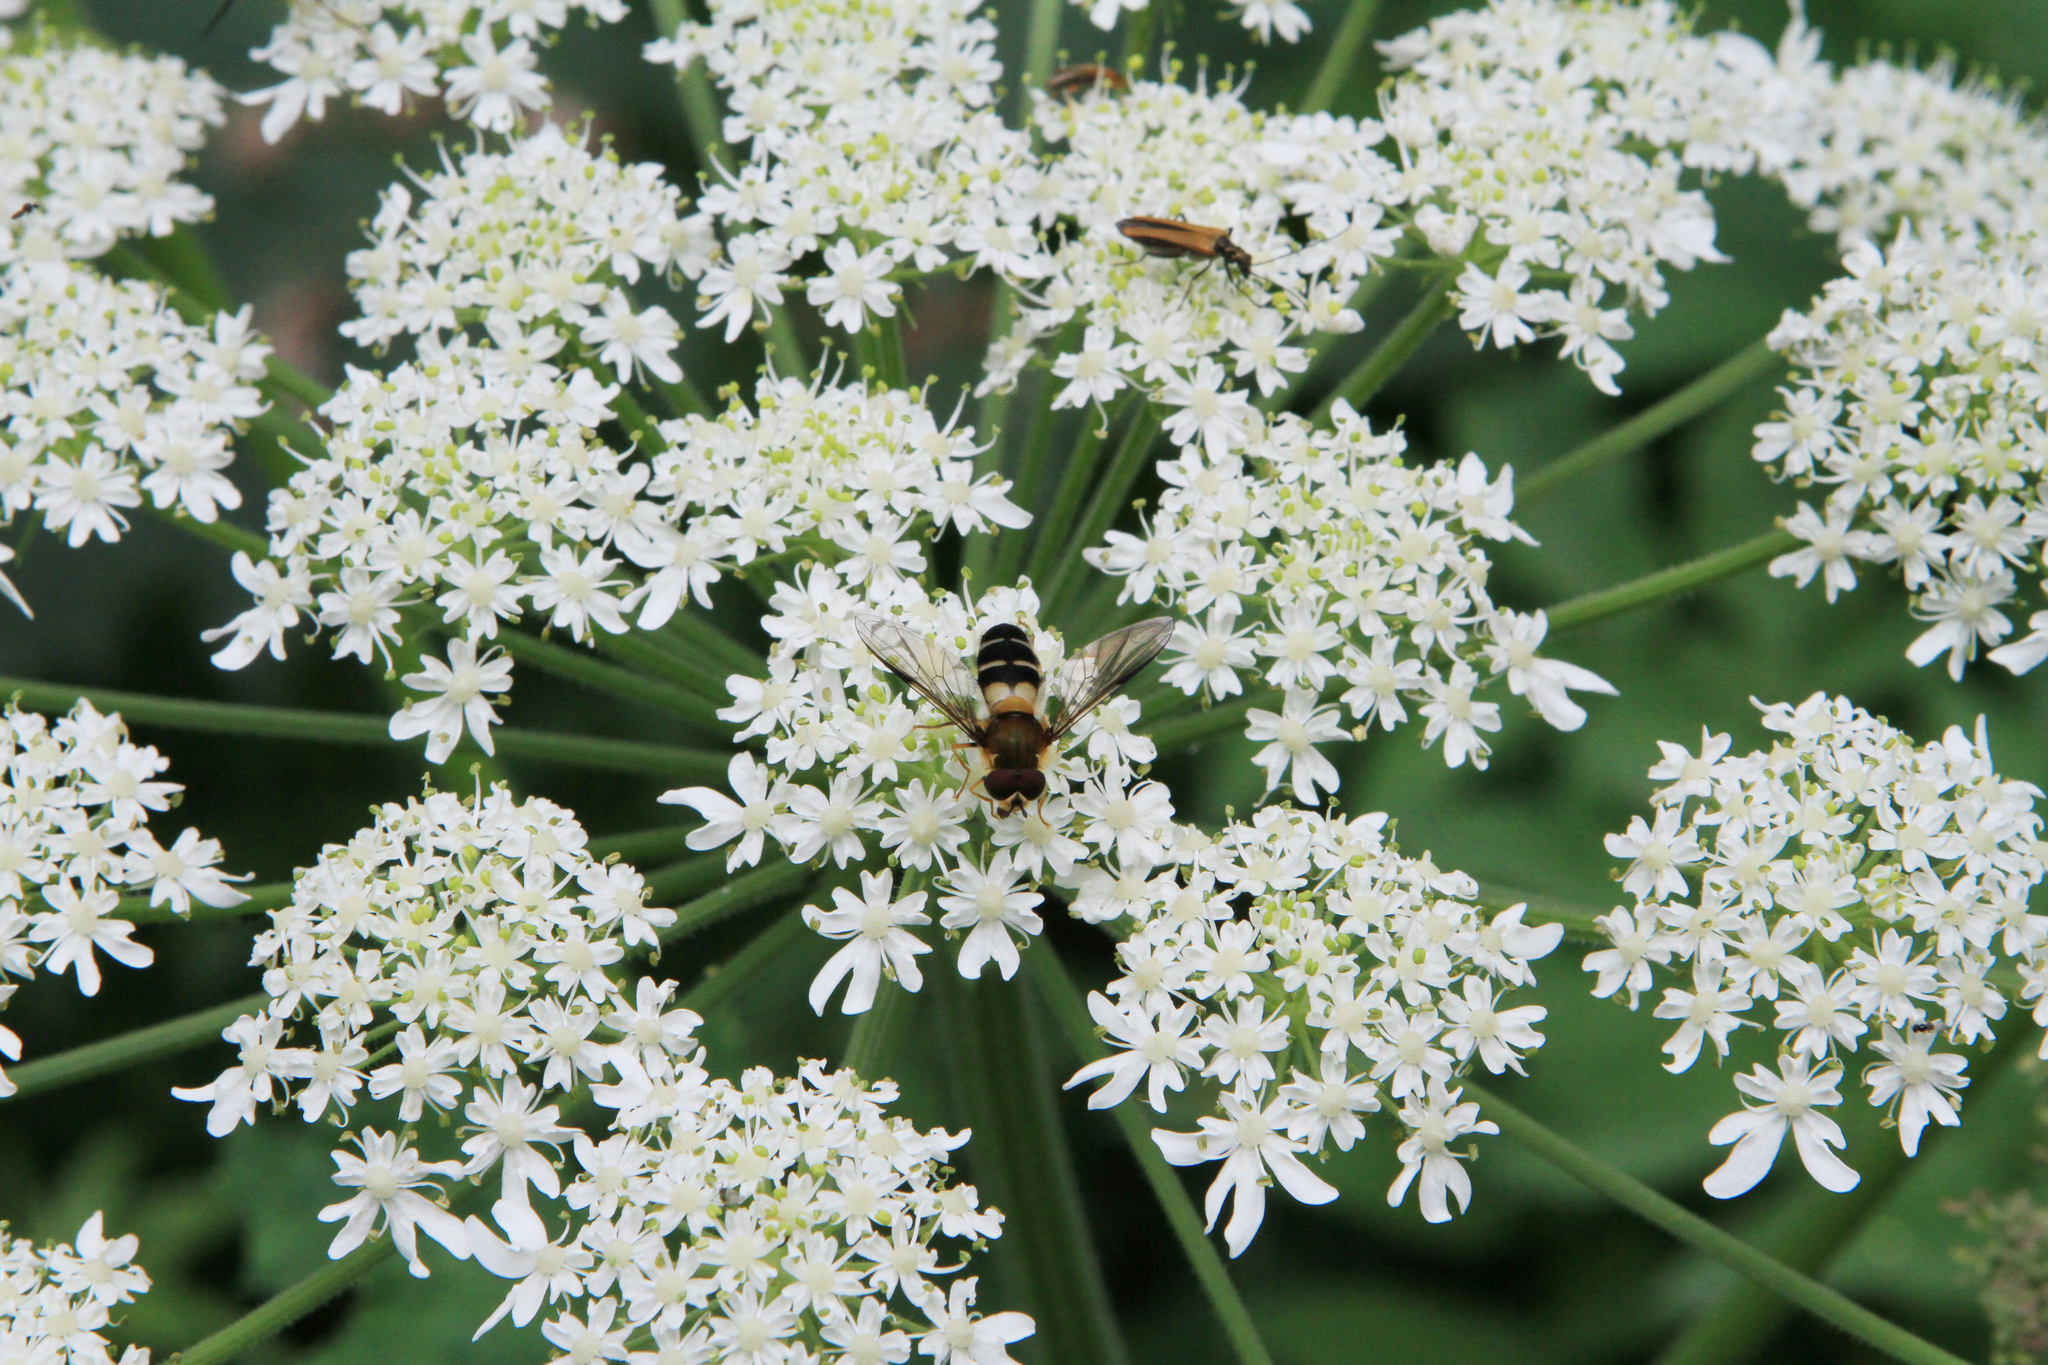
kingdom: Plantae
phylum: Tracheophyta
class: Magnoliopsida
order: Apiales
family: Apiaceae
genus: Heracleum
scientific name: Heracleum dissectum
